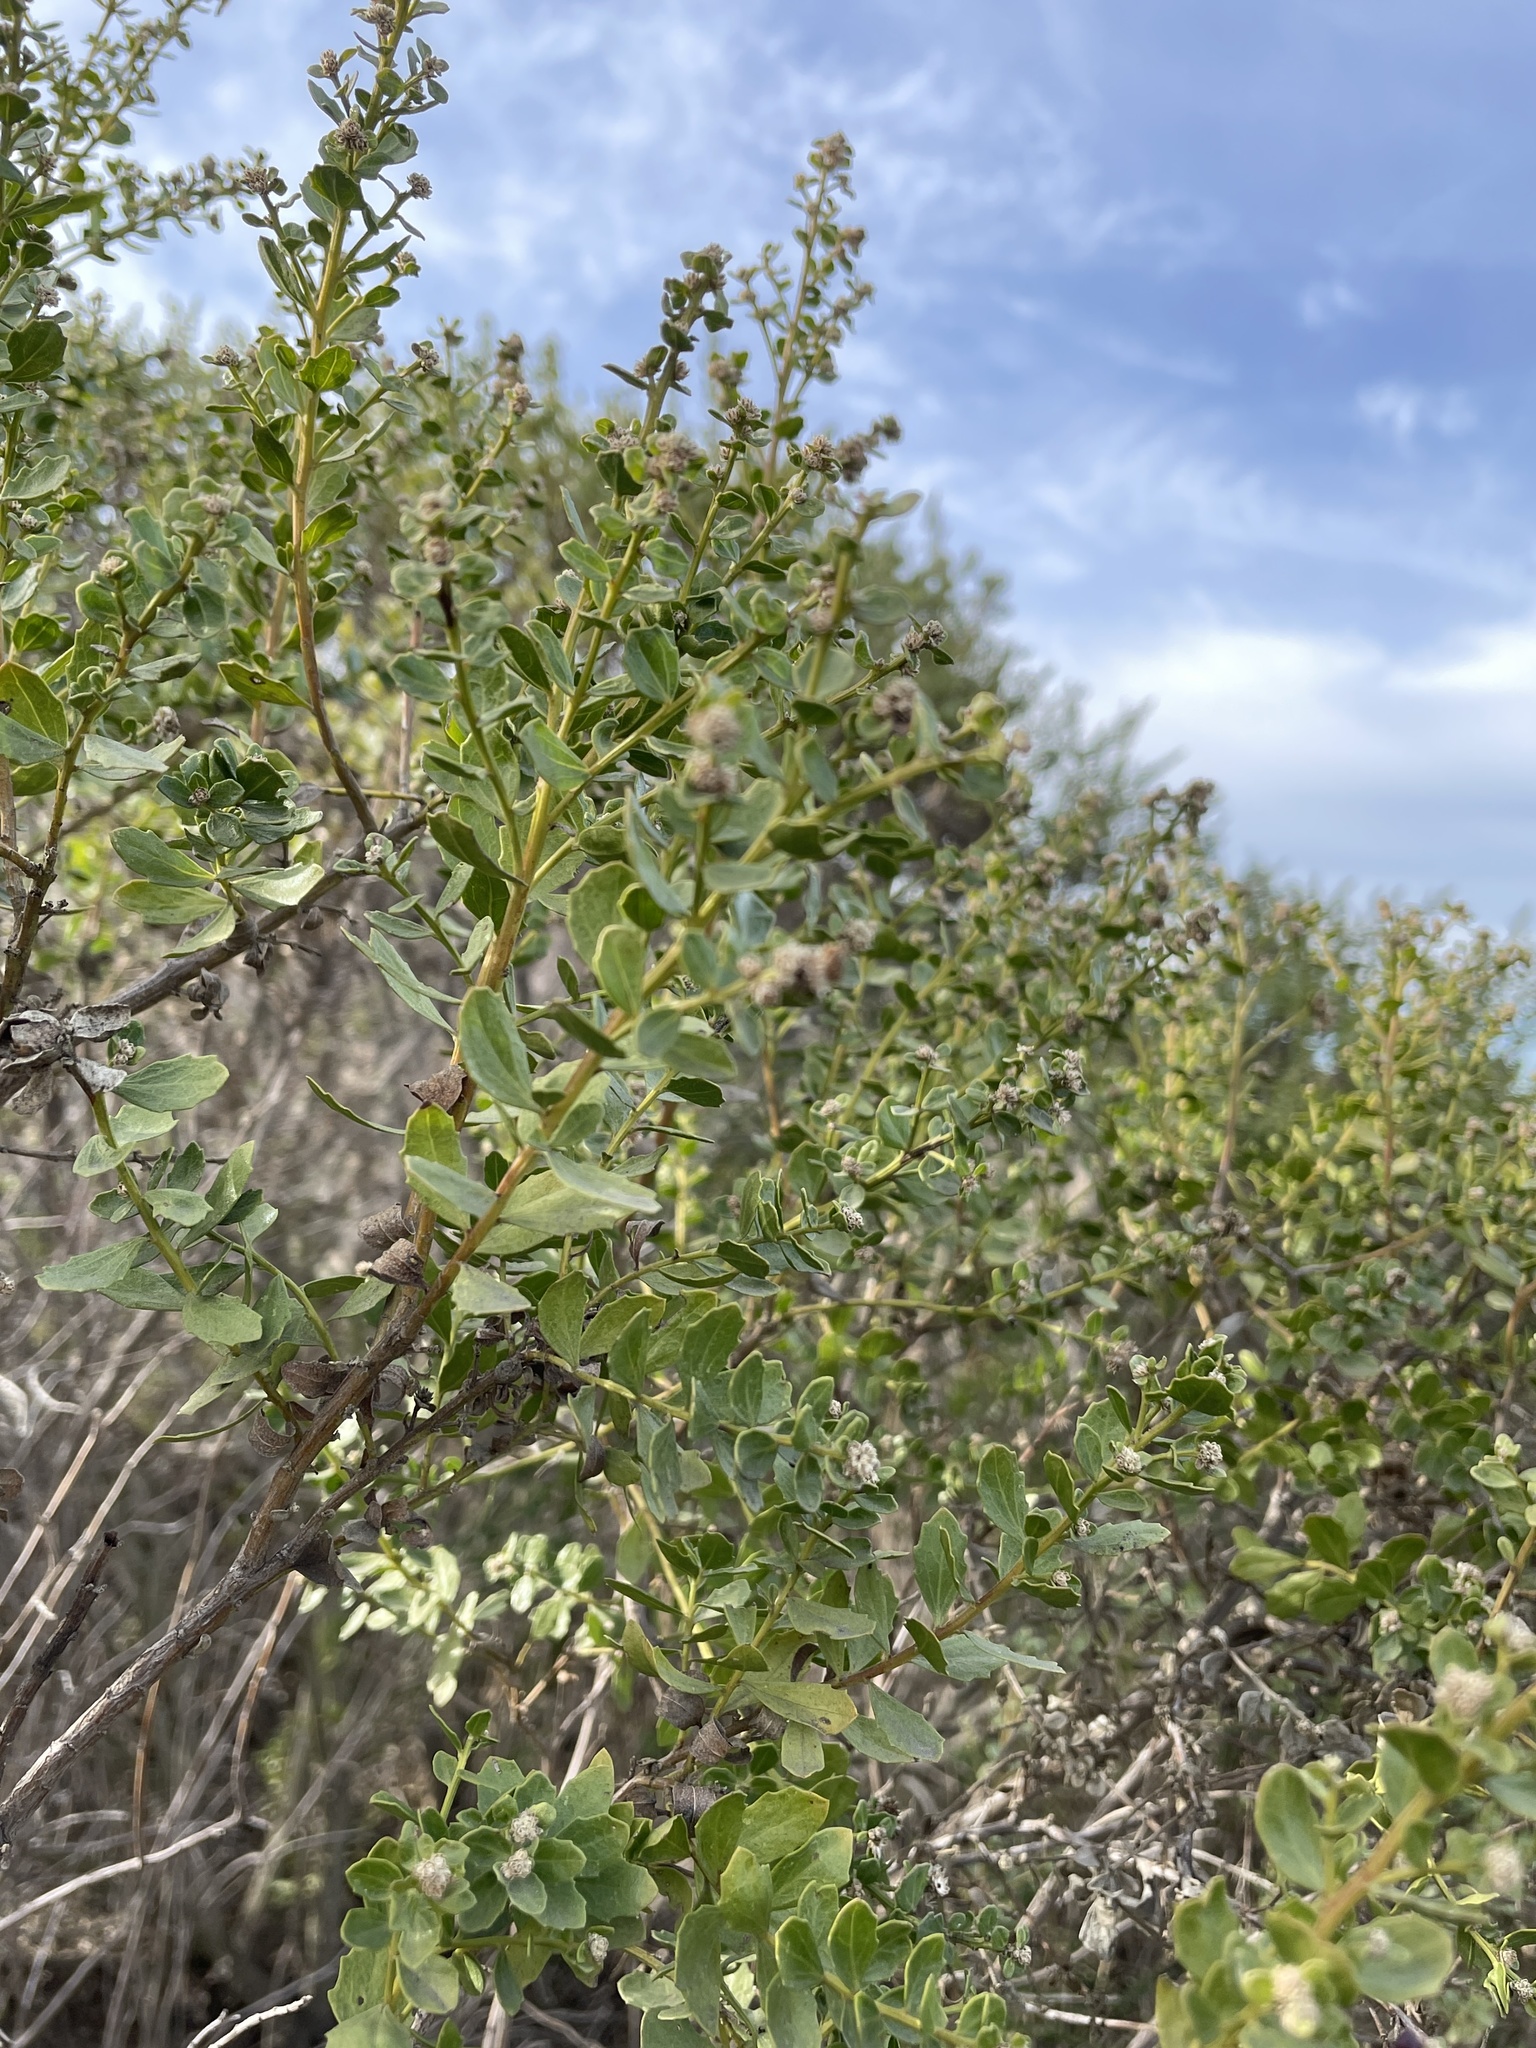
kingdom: Plantae
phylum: Tracheophyta
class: Magnoliopsida
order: Asterales
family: Asteraceae
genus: Baccharis
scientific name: Baccharis pilularis
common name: Coyotebrush
